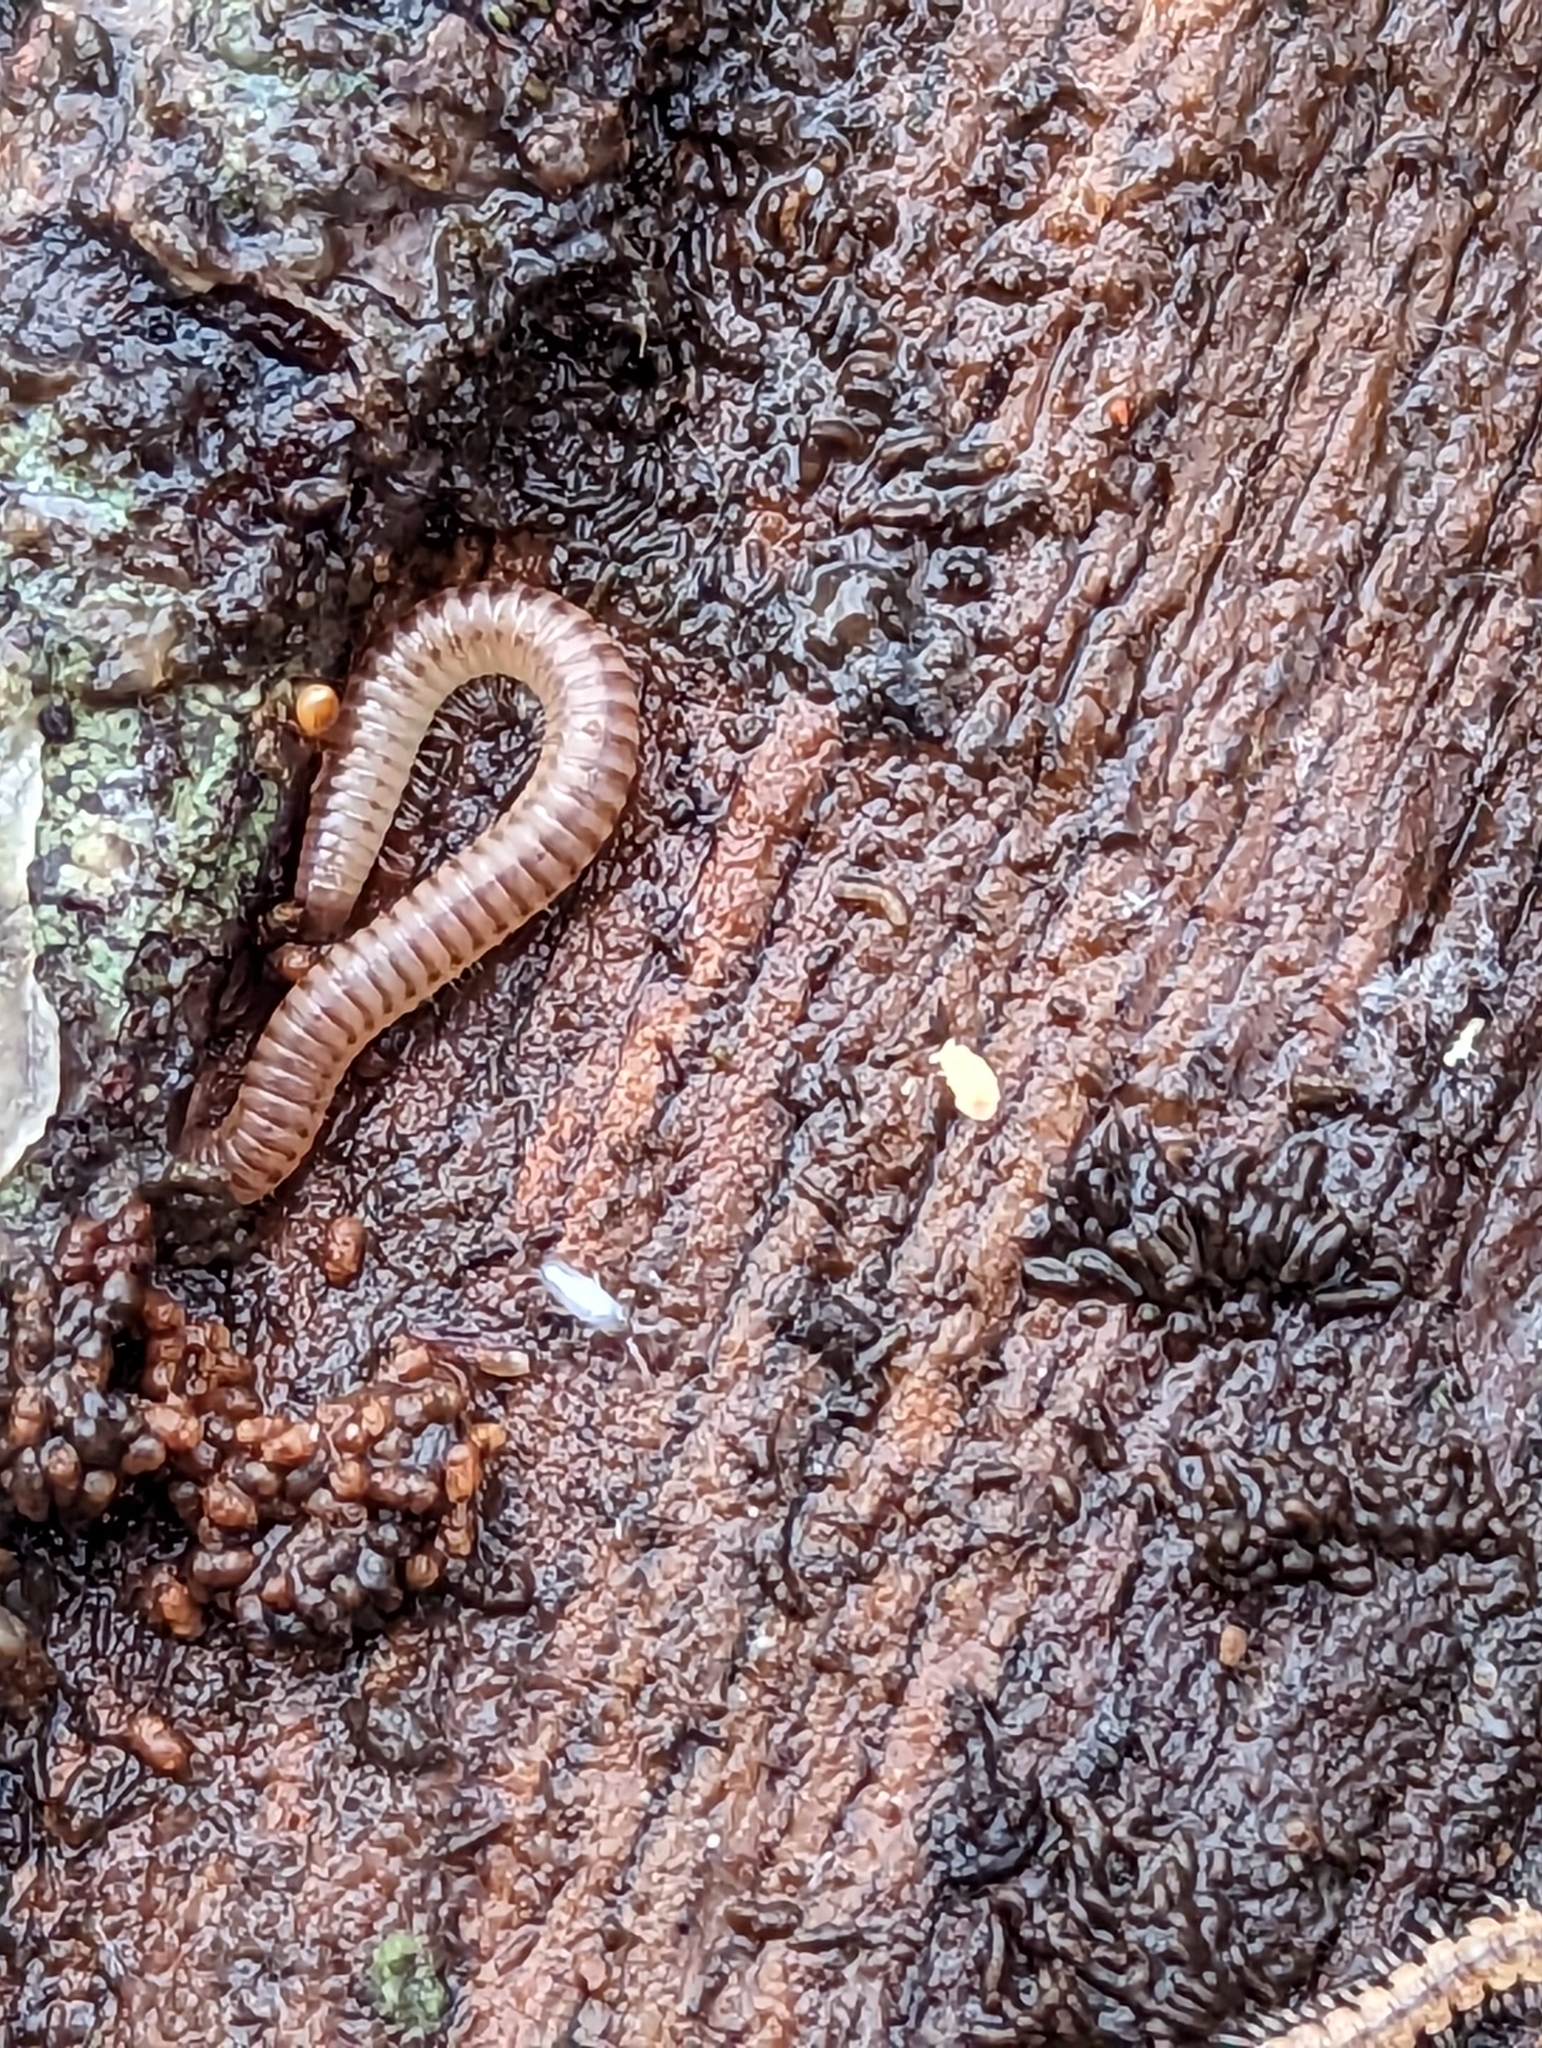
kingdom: Animalia
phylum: Arthropoda
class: Diplopoda
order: Julida
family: Julidae
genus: Cylindroiulus
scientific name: Cylindroiulus punctatus
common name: Blunt-tailed millipede
